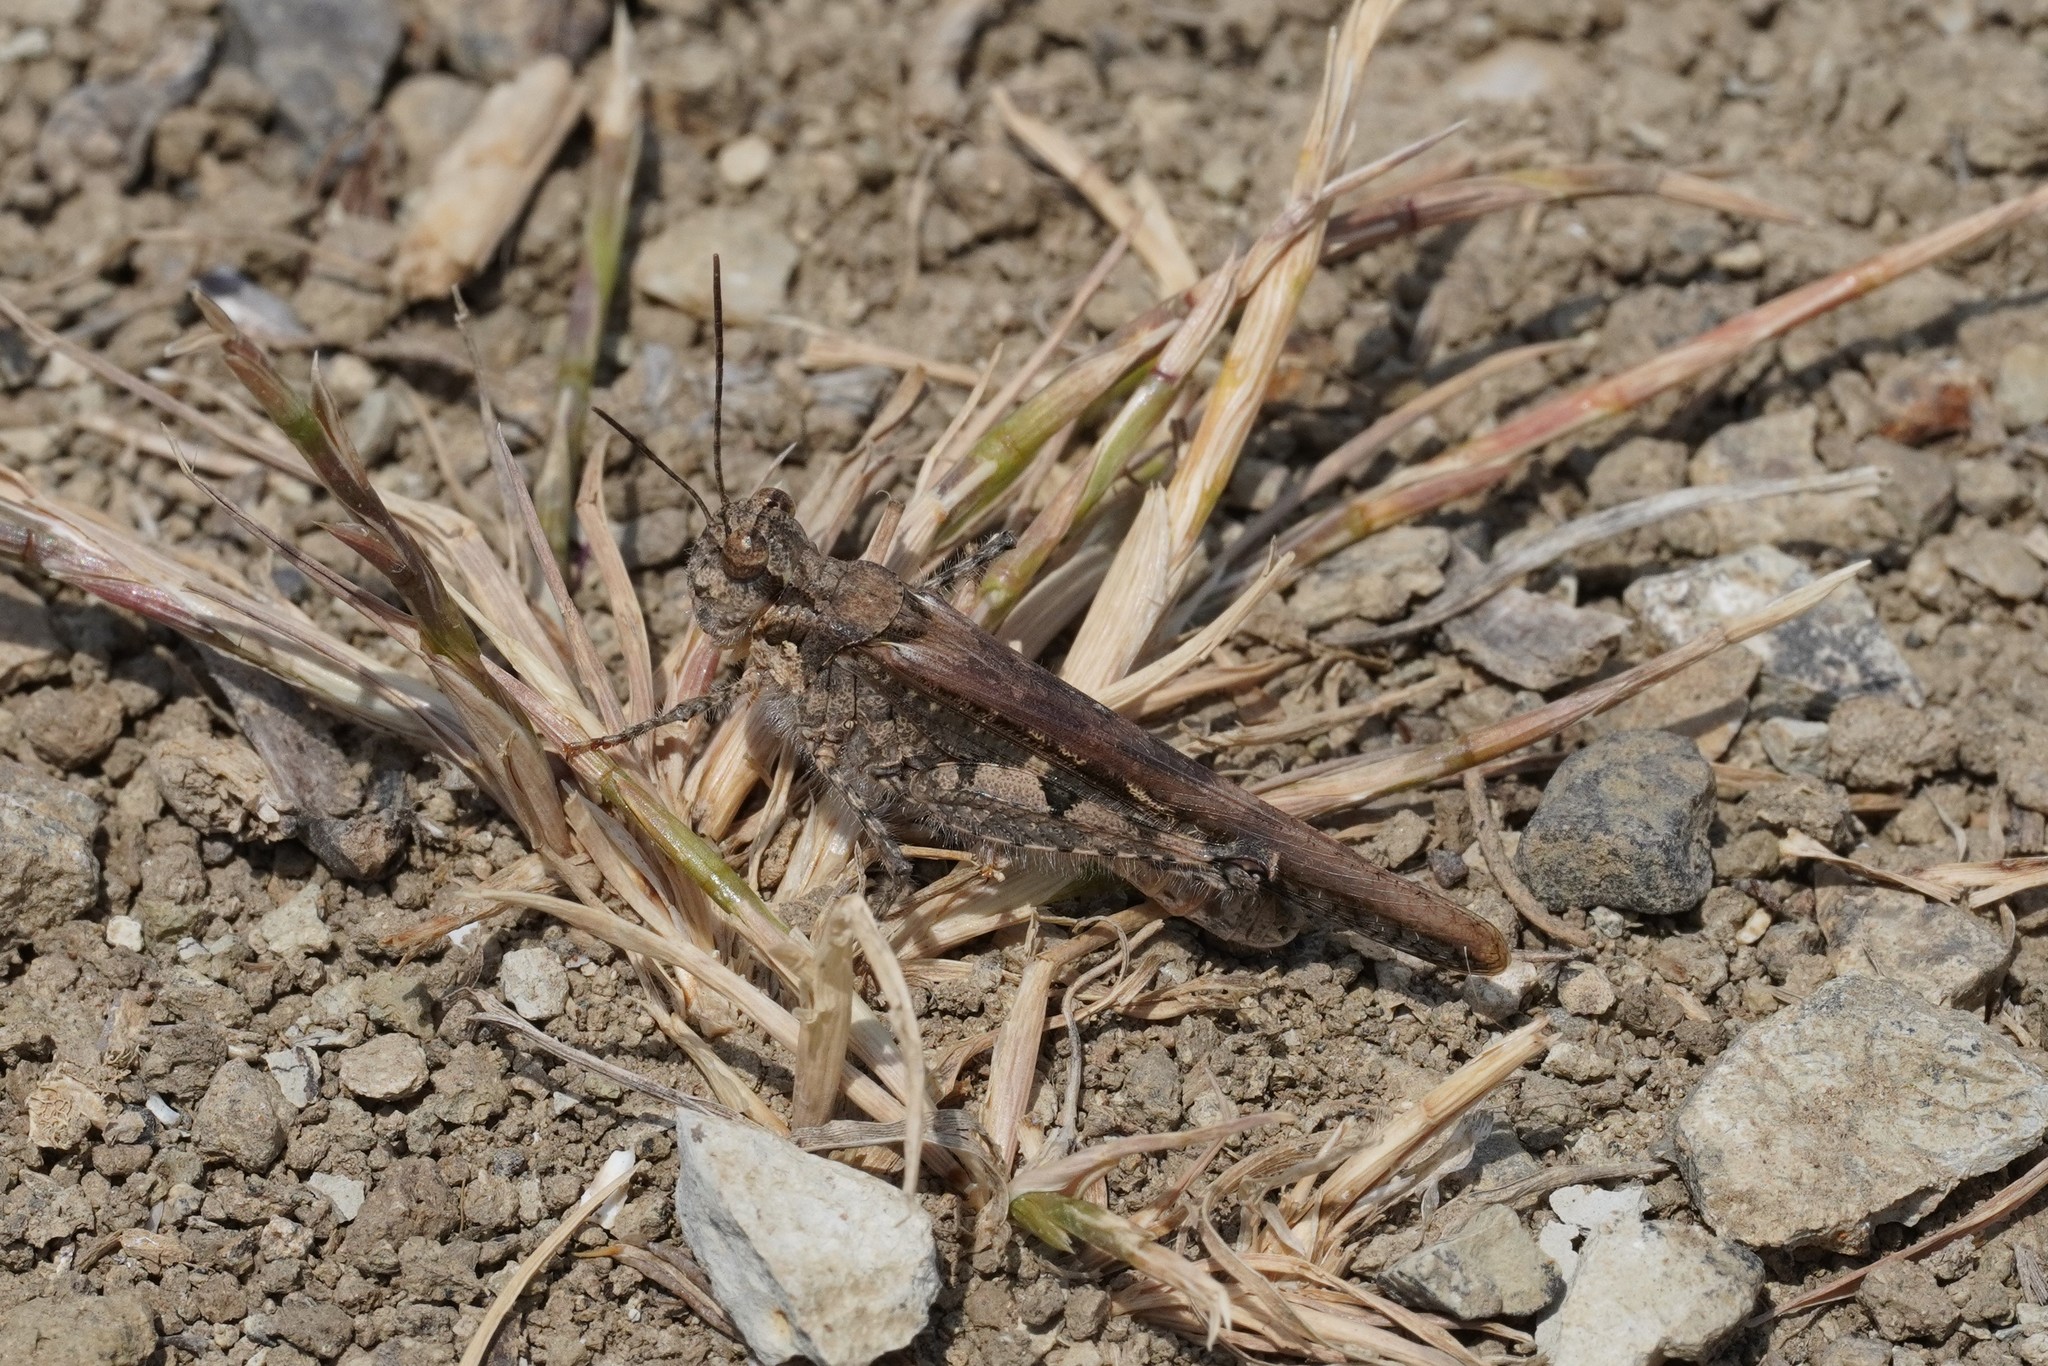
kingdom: Animalia
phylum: Arthropoda
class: Insecta
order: Orthoptera
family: Acrididae
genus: Acrotylus
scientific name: Acrotylus patruelis
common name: Slender burrowing grasshopper
